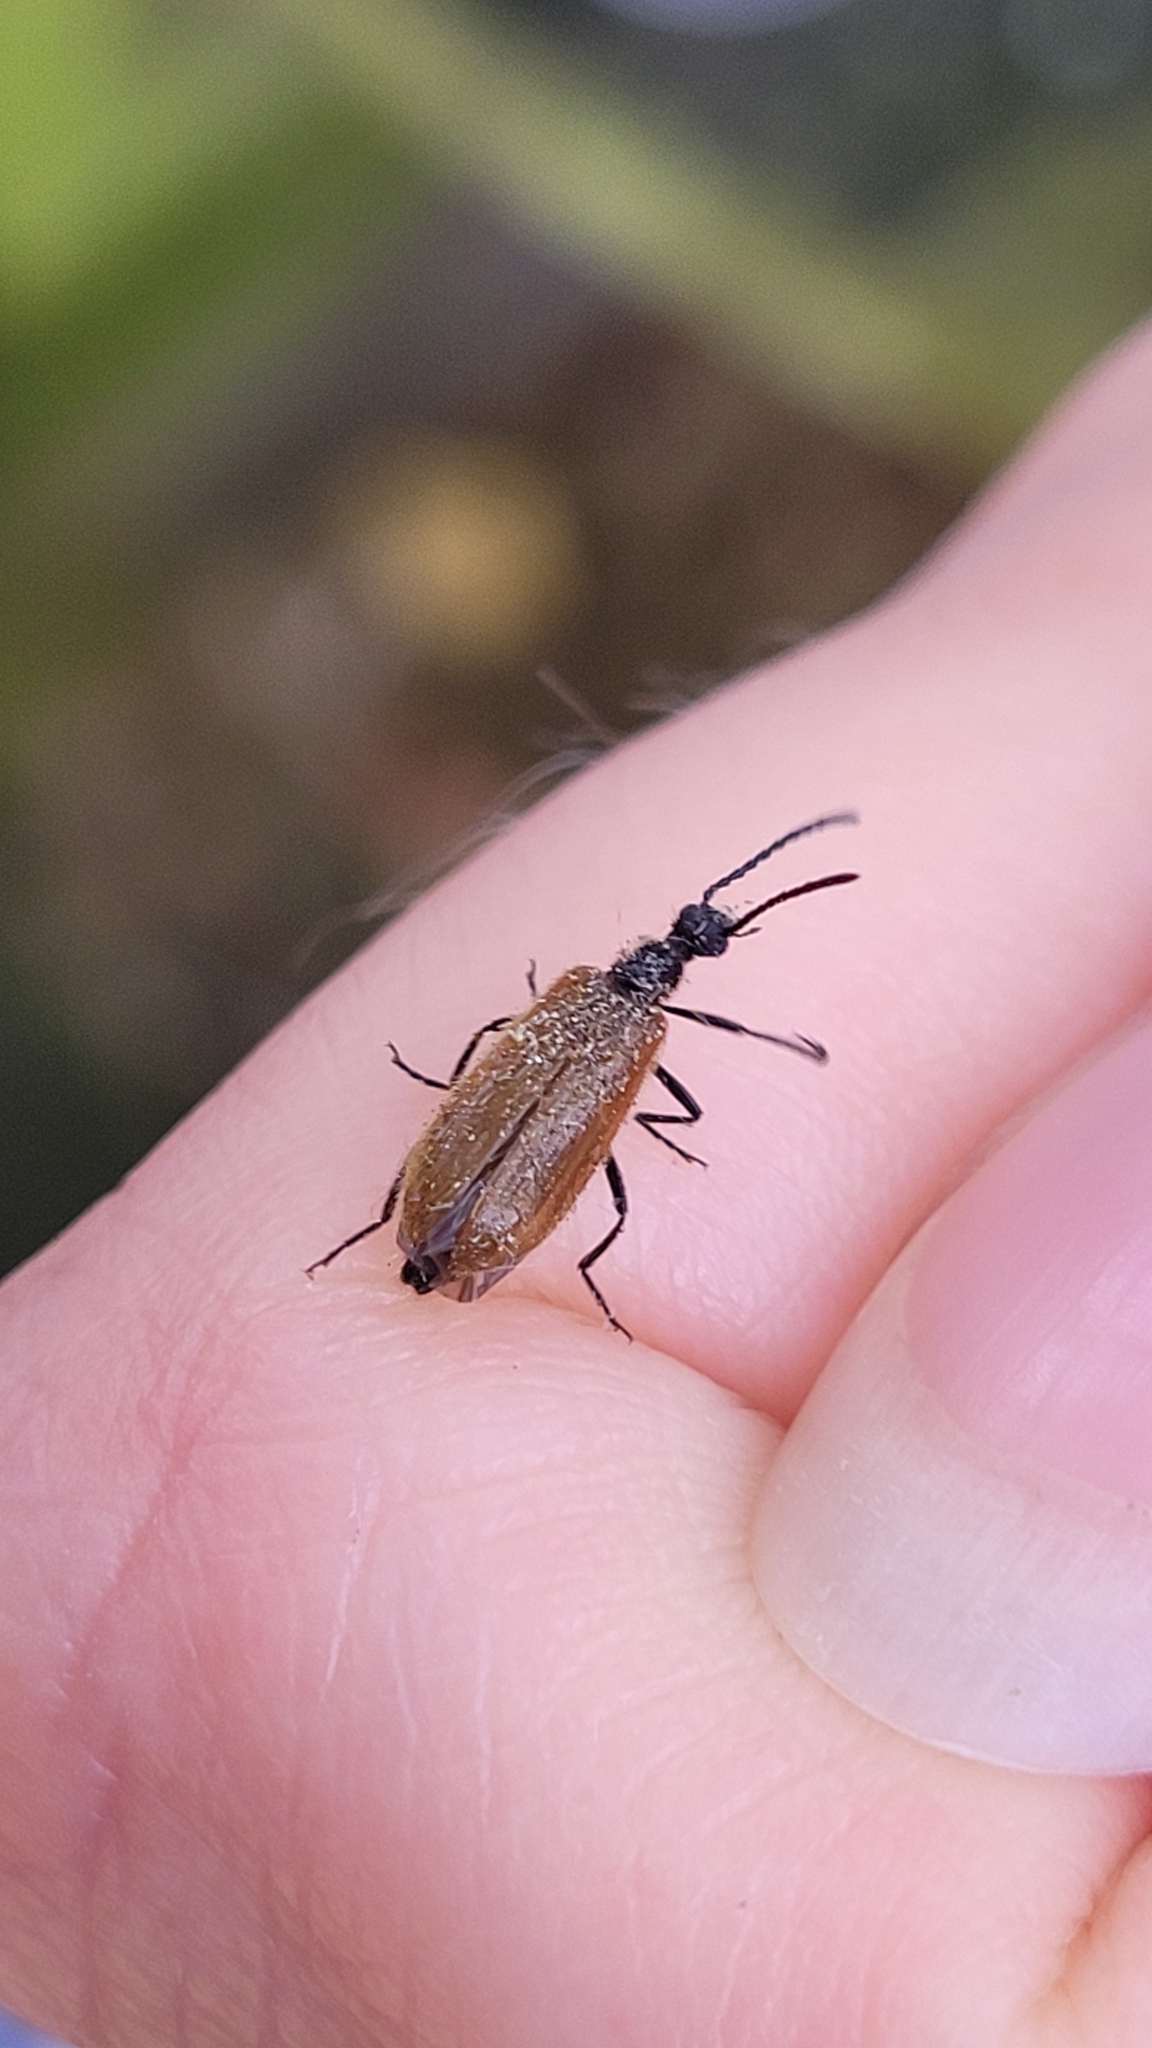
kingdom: Animalia
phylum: Arthropoda
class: Insecta
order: Coleoptera
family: Tenebrionidae
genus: Lagria
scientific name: Lagria hirta
